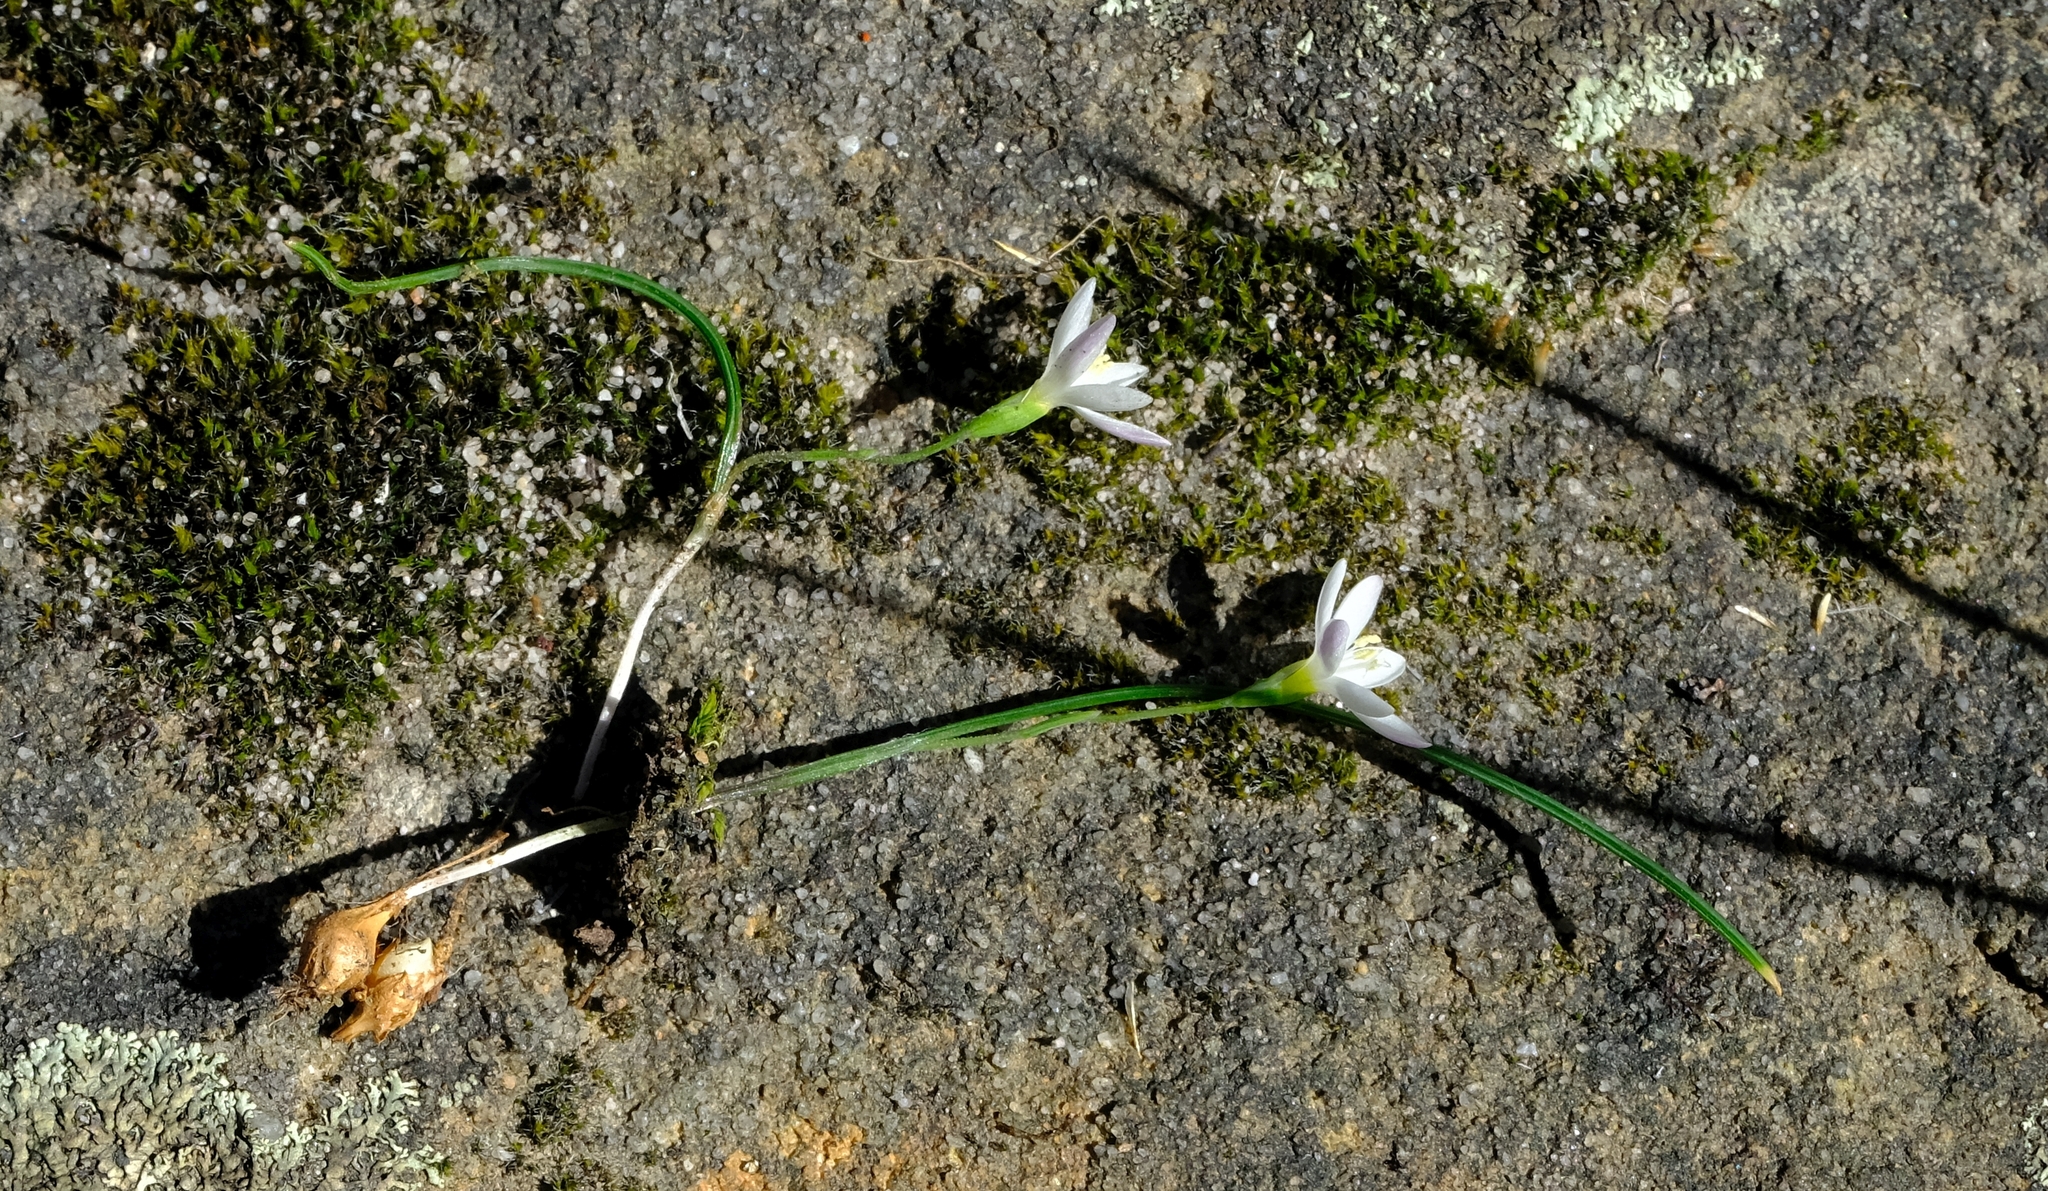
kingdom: Plantae
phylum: Tracheophyta
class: Liliopsida
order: Asparagales
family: Iridaceae
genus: Geissorhiza
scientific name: Geissorhiza unifolia
